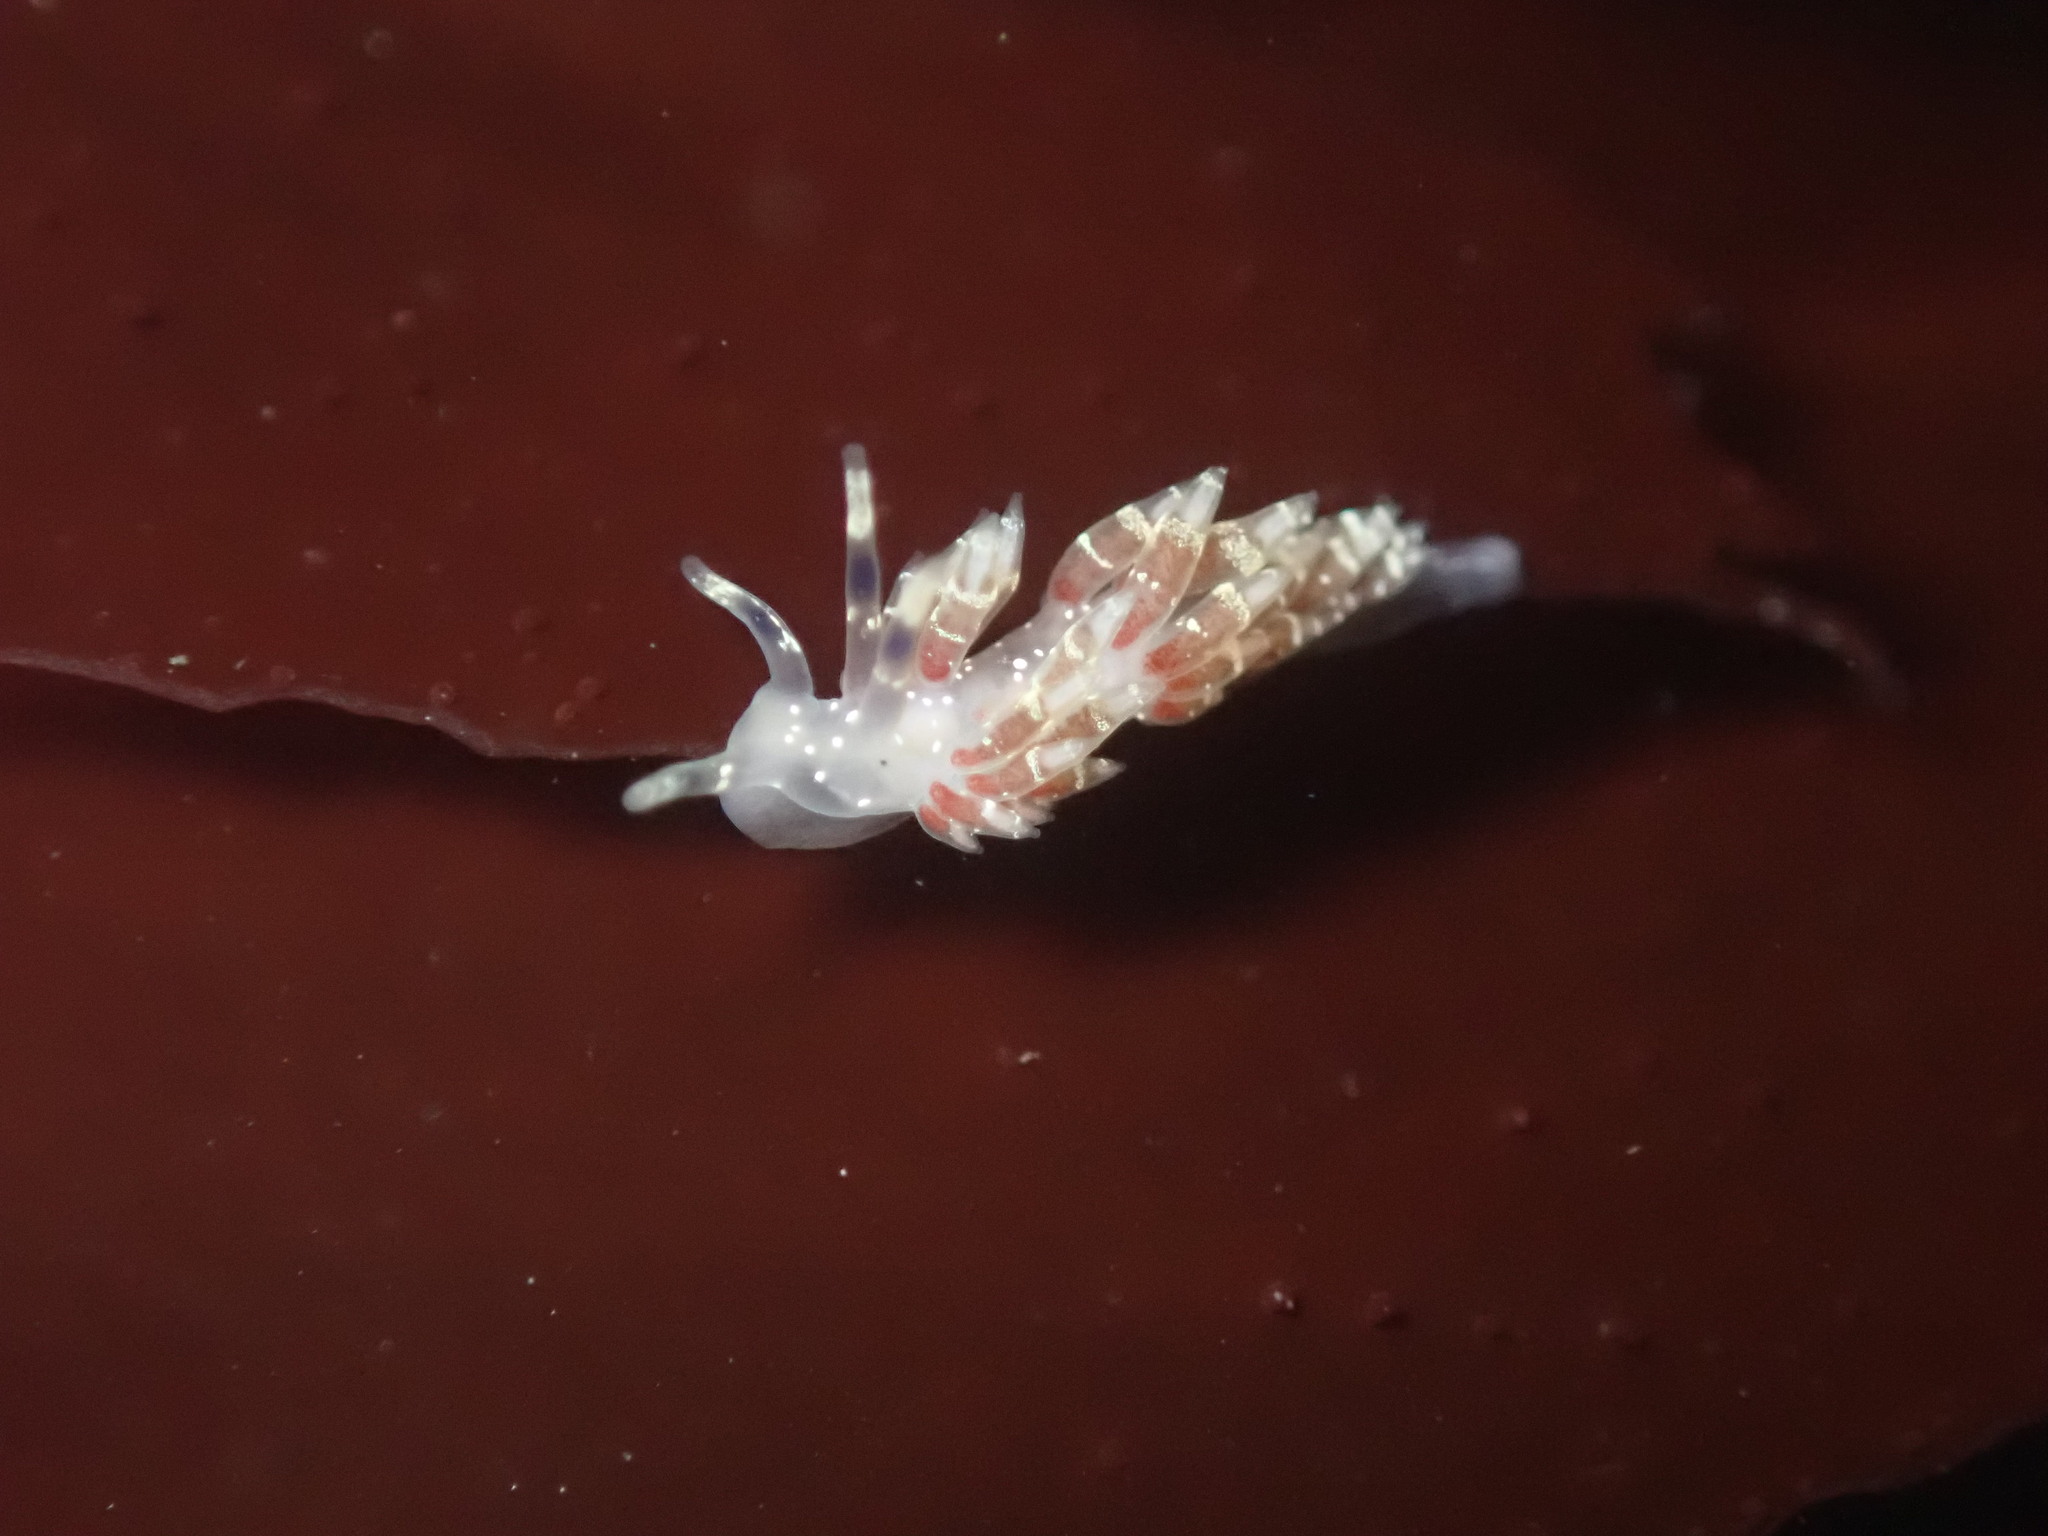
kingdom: Animalia
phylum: Mollusca
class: Gastropoda
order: Nudibranchia
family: Abronicidae
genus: Abronica
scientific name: Abronica abronia
